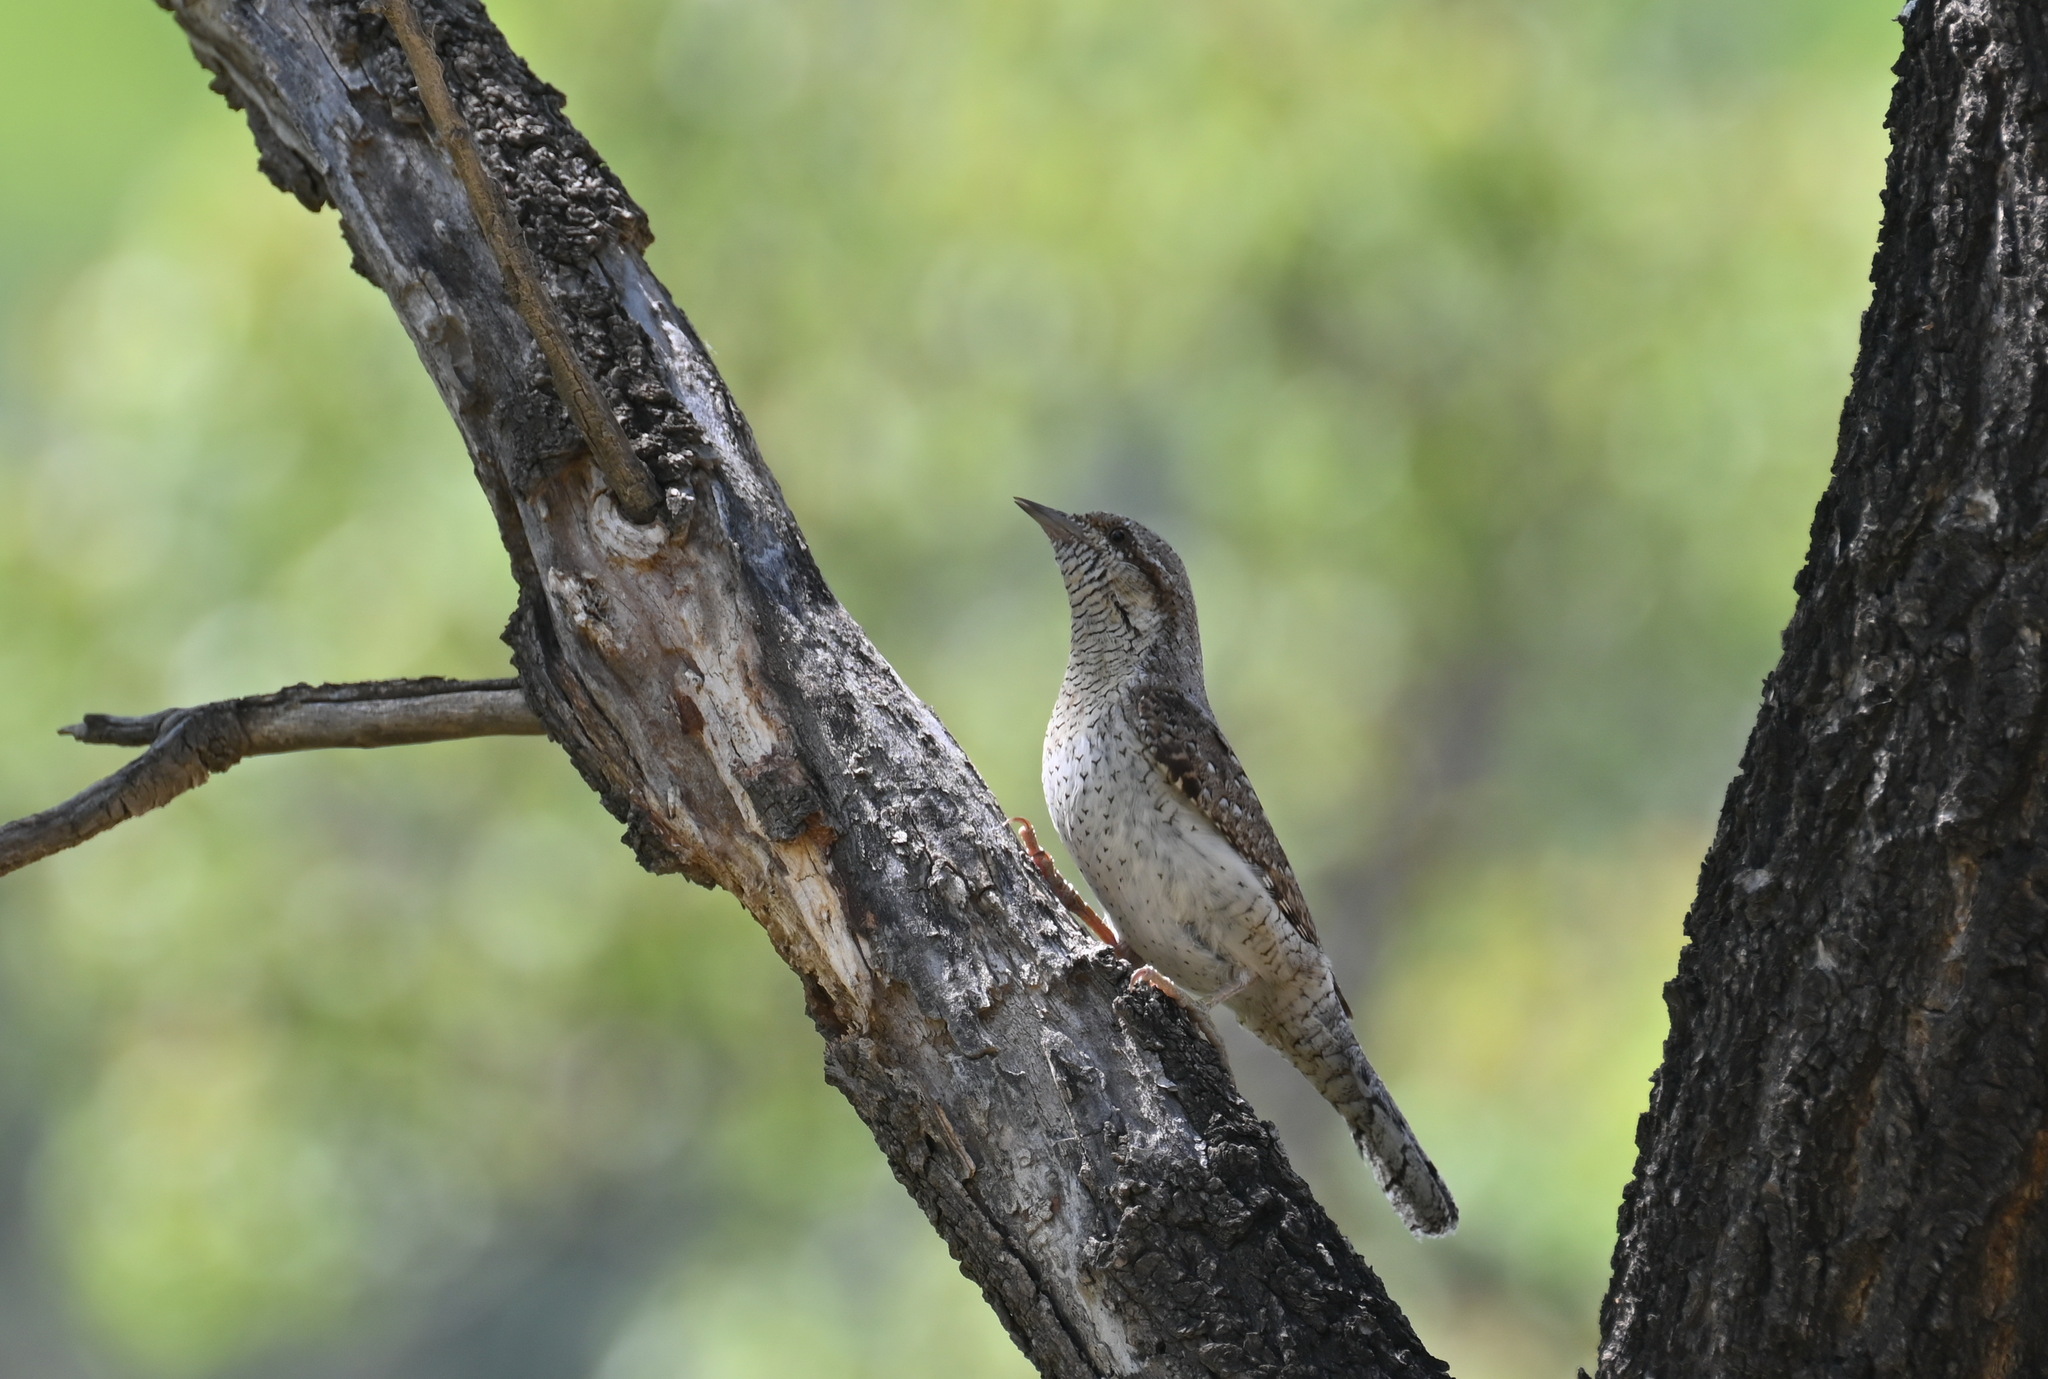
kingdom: Animalia
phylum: Chordata
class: Aves
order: Piciformes
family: Picidae
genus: Jynx
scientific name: Jynx torquilla
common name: Eurasian wryneck
